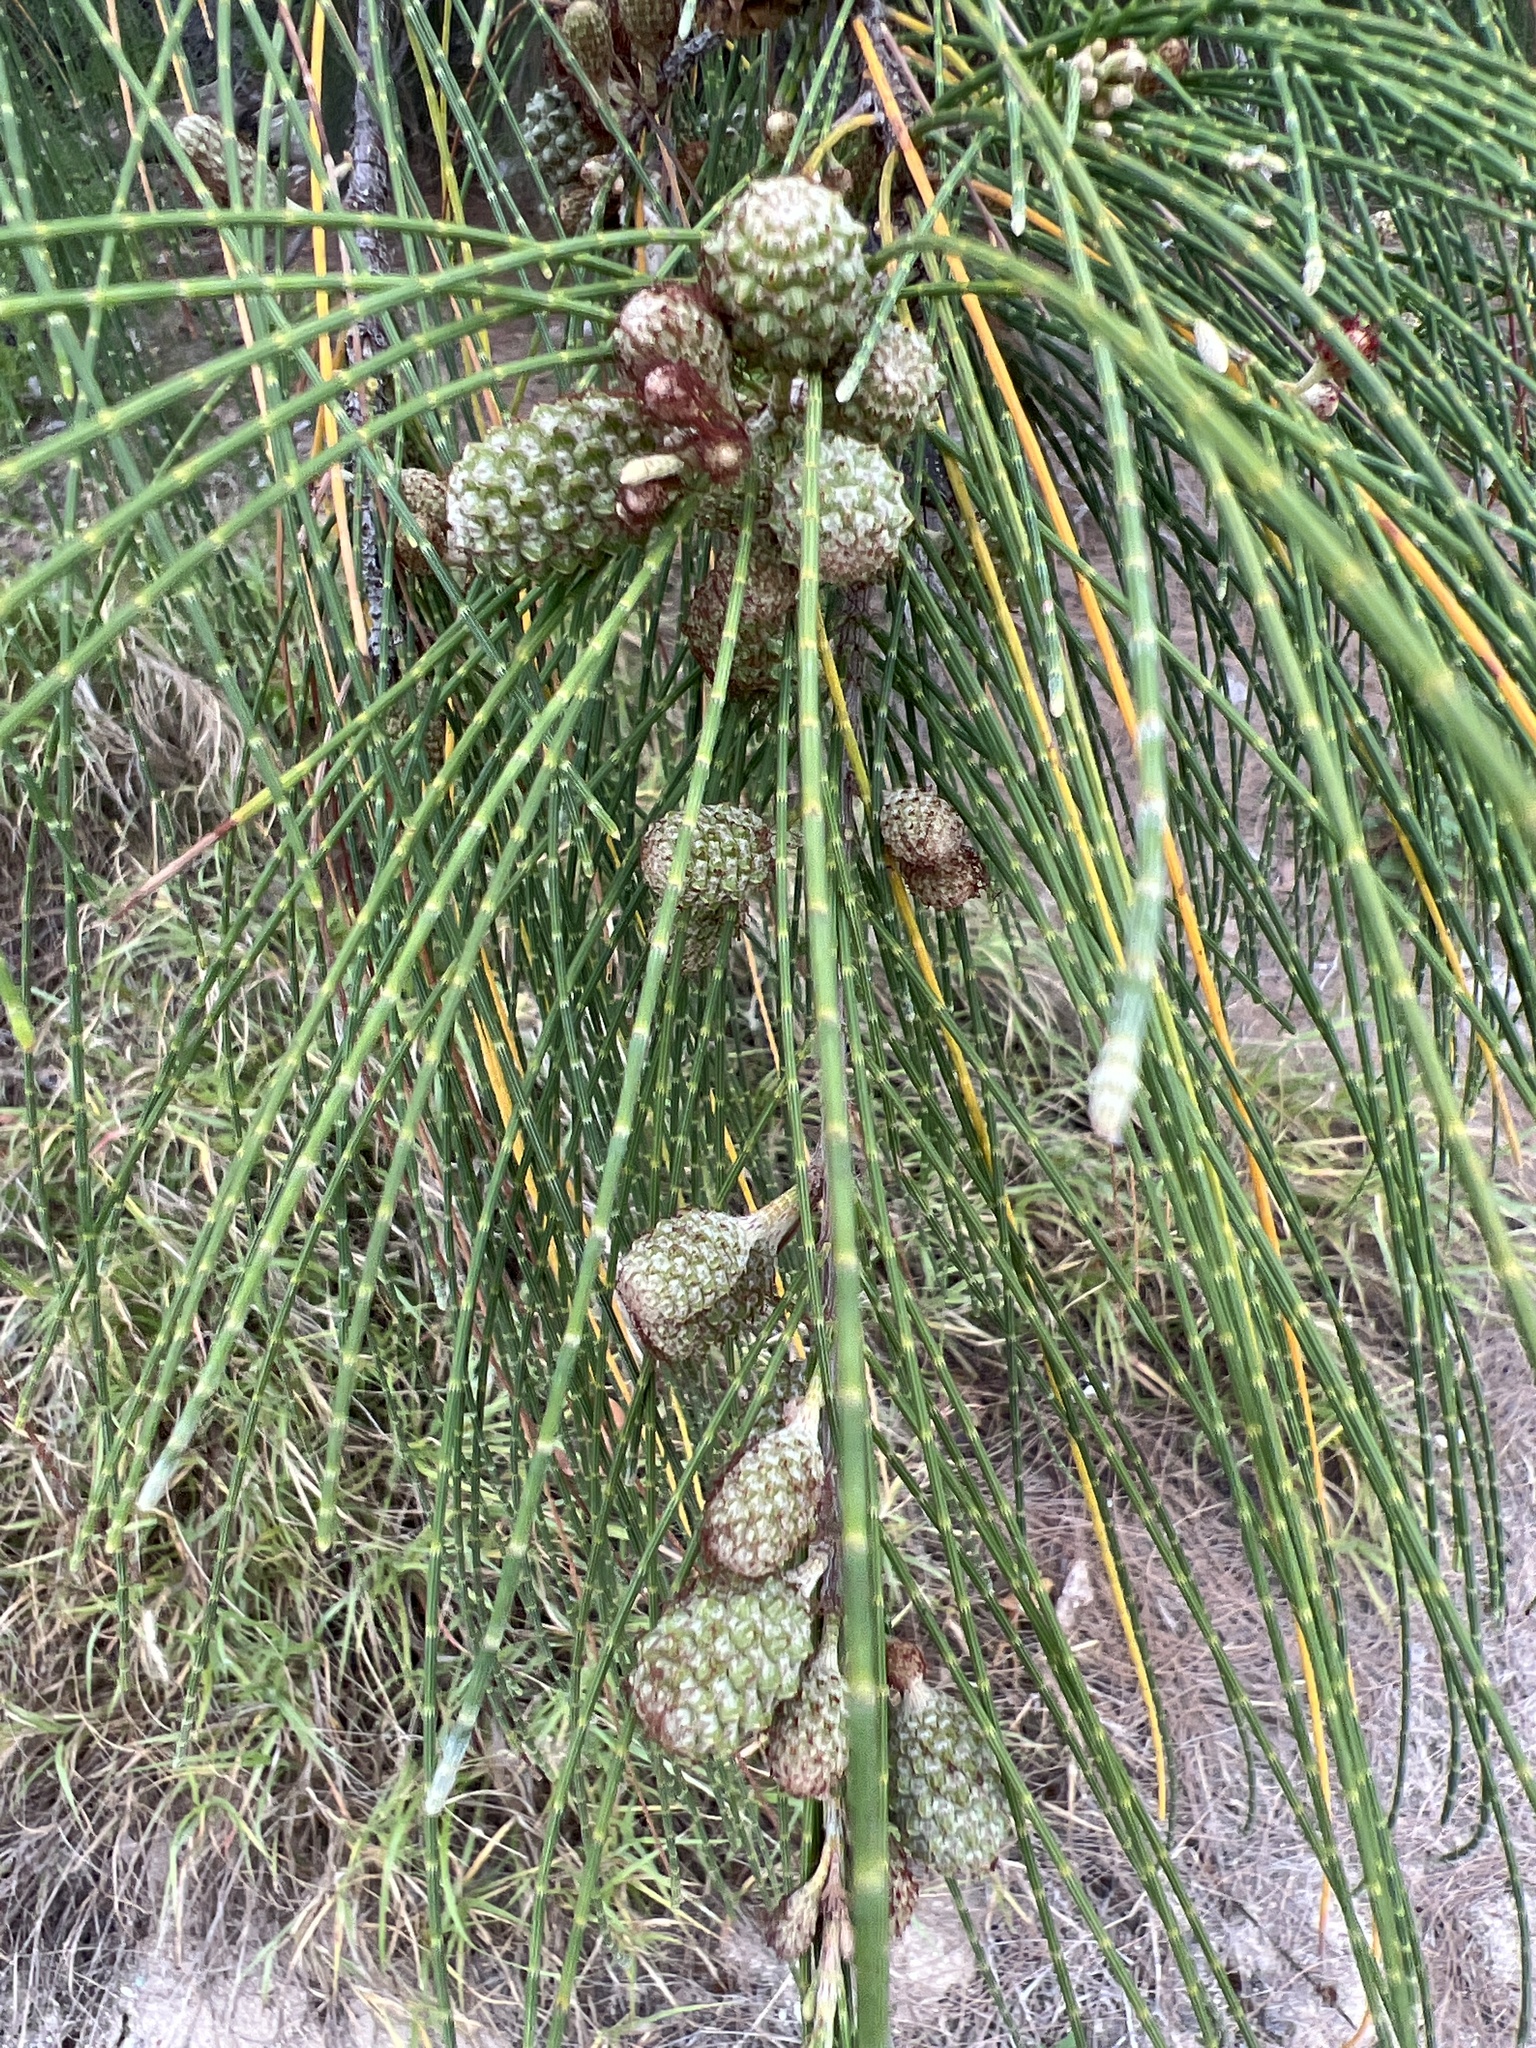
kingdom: Plantae
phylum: Tracheophyta
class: Magnoliopsida
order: Fagales
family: Casuarinaceae
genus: Casuarina
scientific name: Casuarina equisetifolia
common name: Beach sheoak
